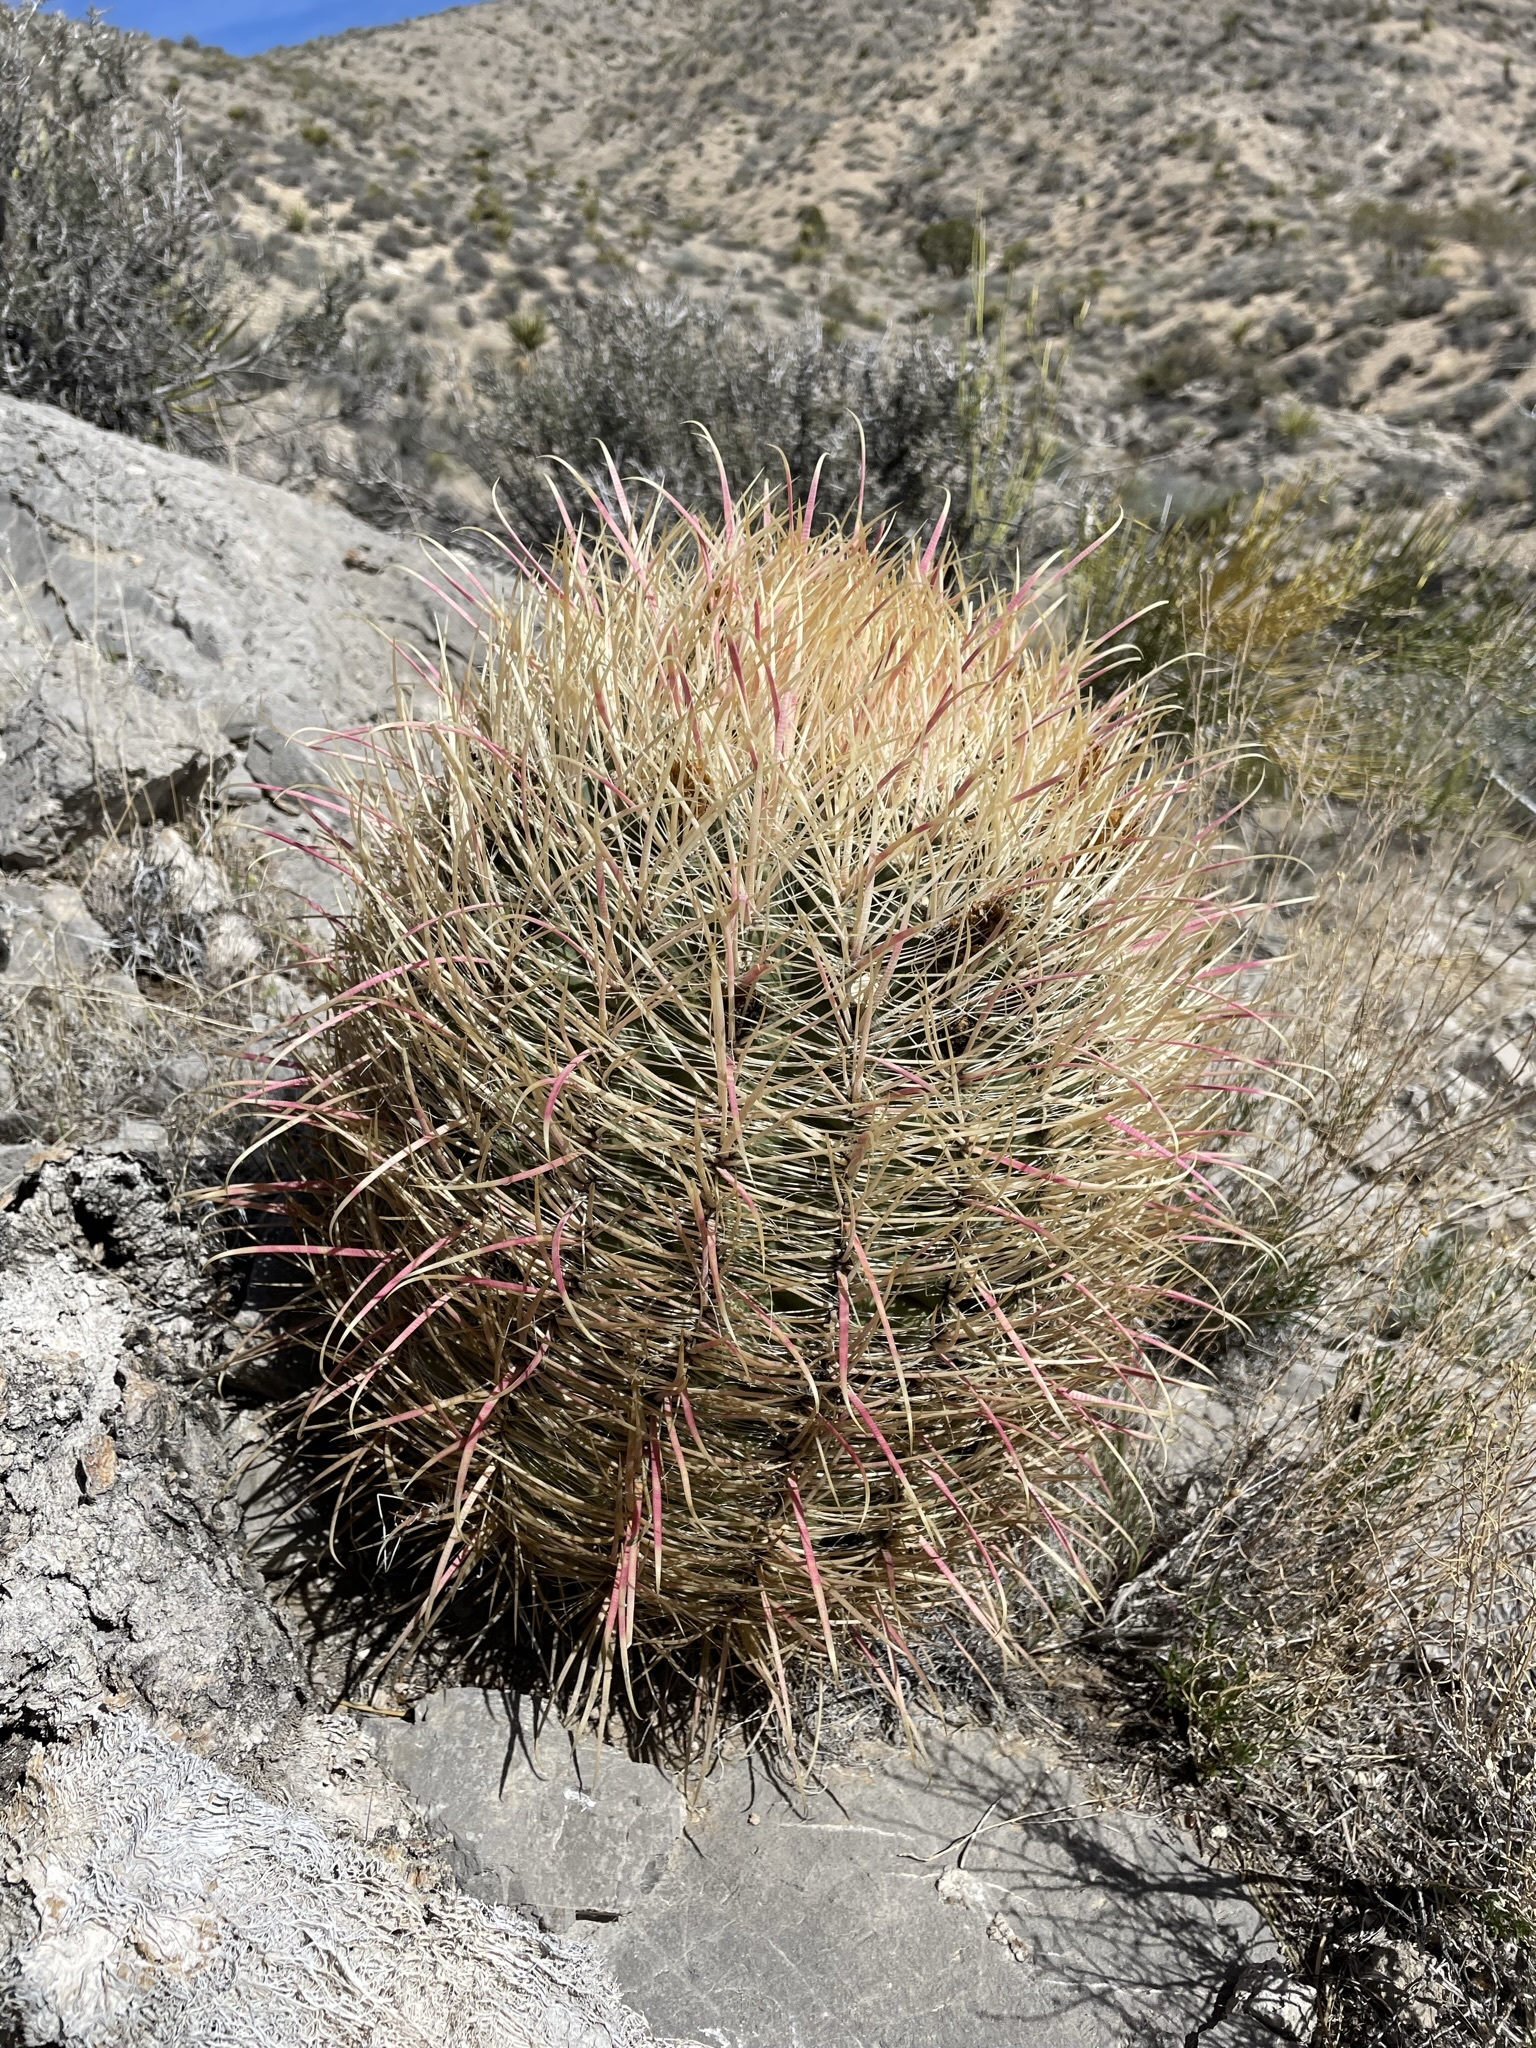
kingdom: Plantae
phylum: Tracheophyta
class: Magnoliopsida
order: Caryophyllales
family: Cactaceae
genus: Ferocactus
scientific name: Ferocactus cylindraceus
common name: California barrel cactus
